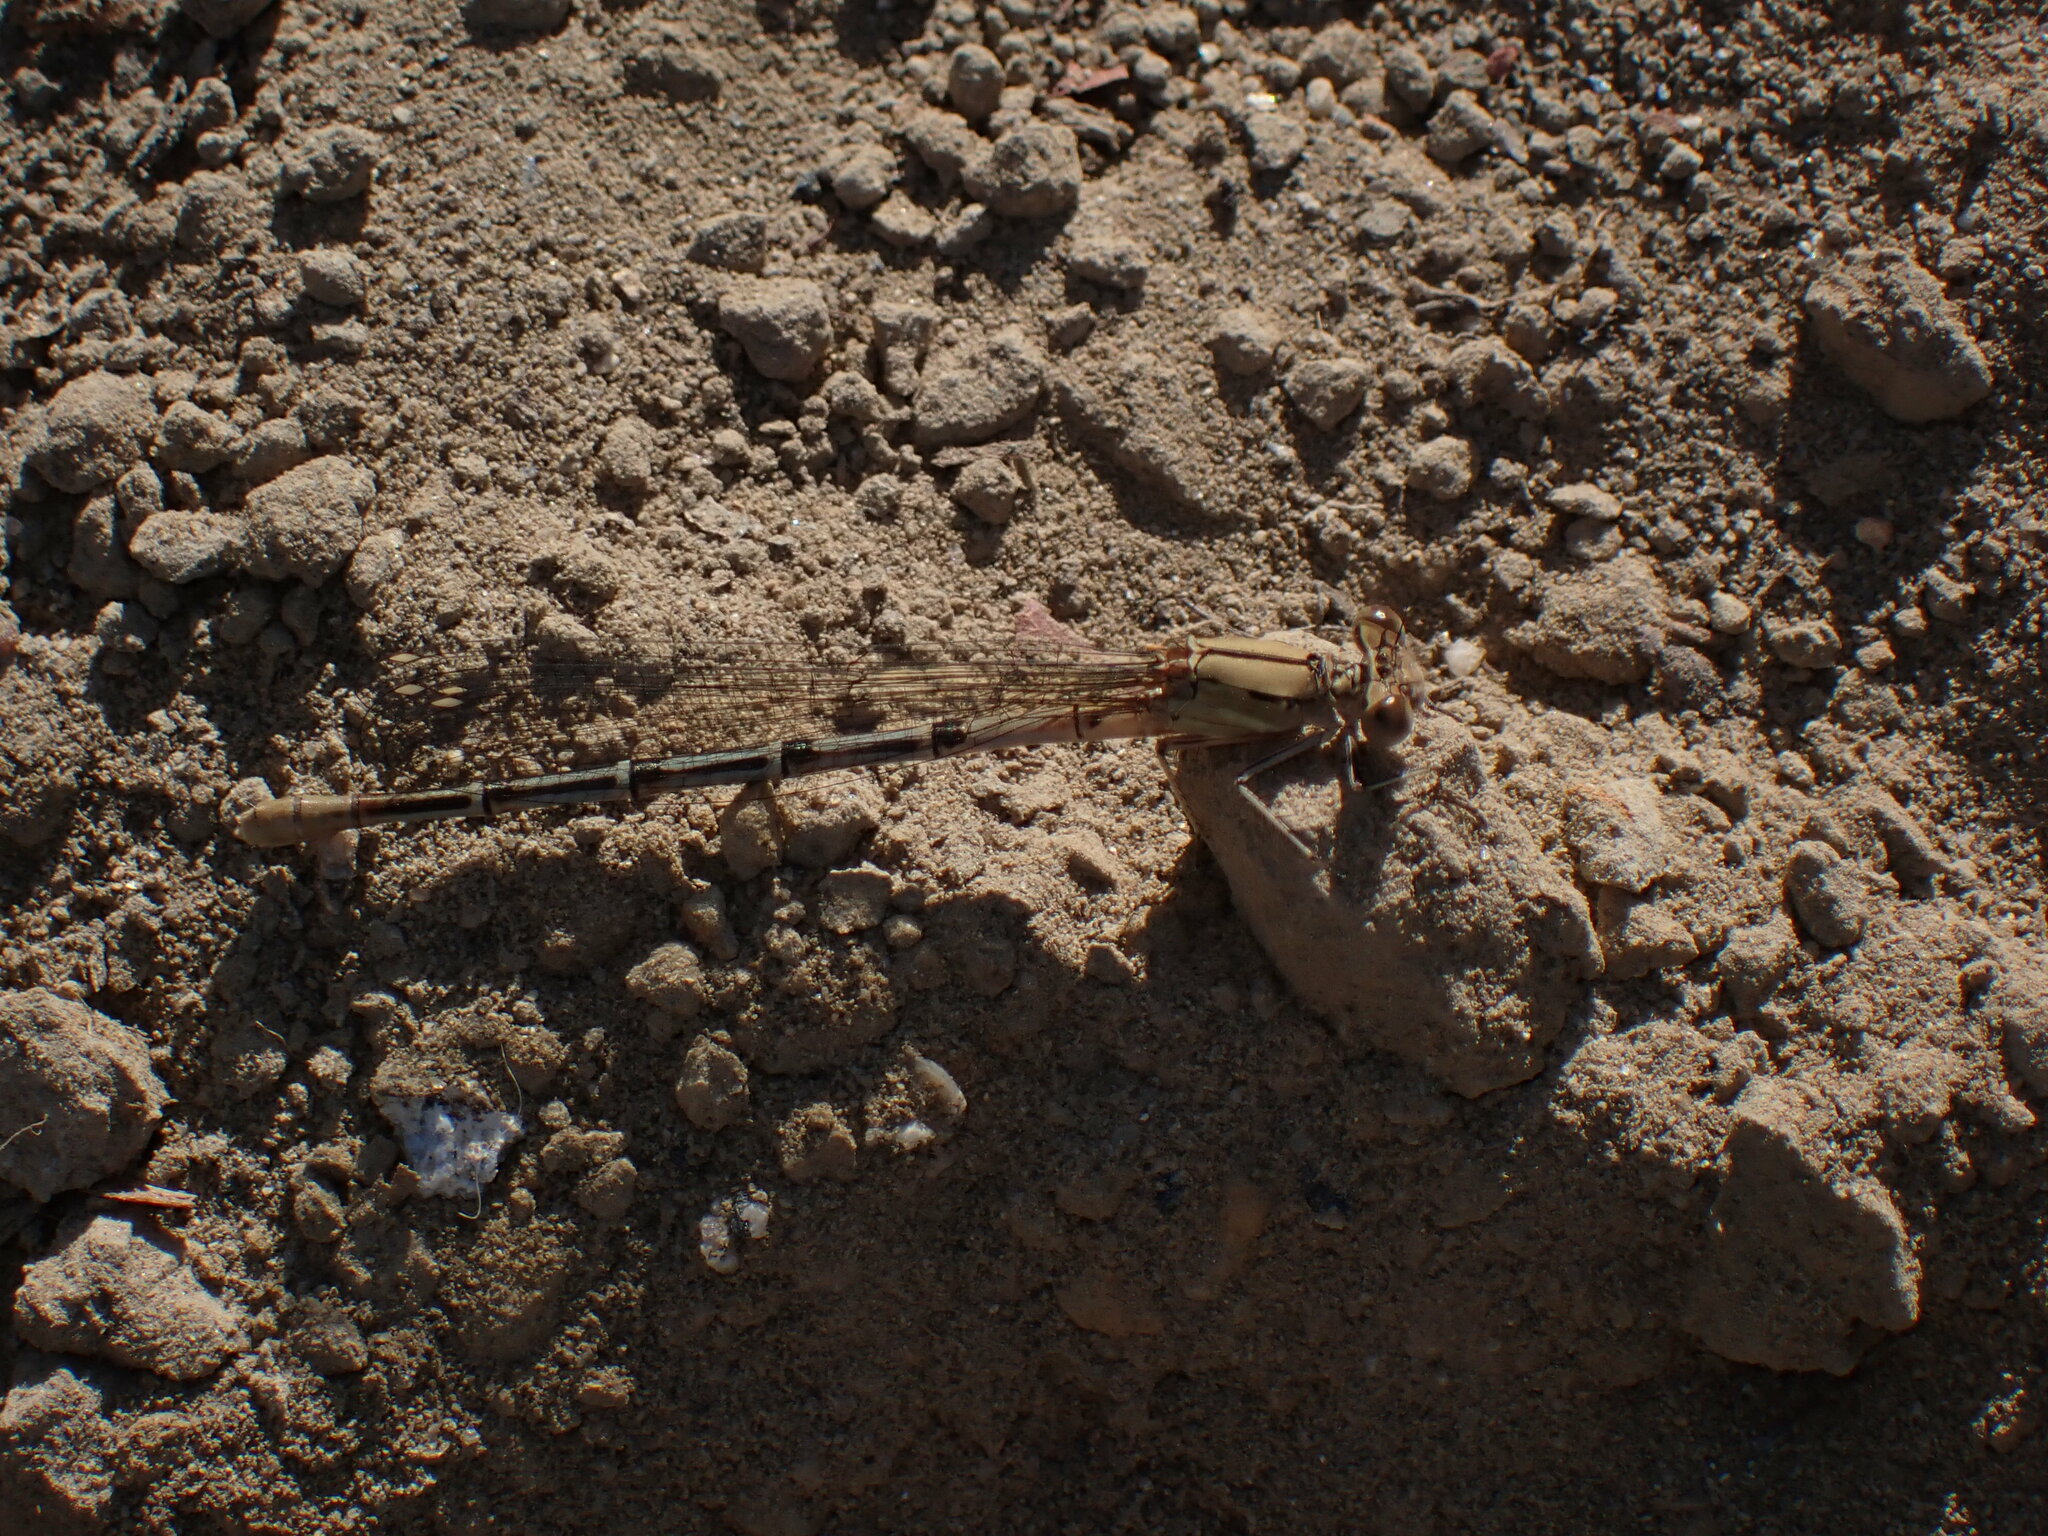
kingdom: Animalia
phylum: Arthropoda
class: Insecta
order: Odonata
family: Coenagrionidae
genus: Argia
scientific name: Argia emma
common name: Emma's dancer
